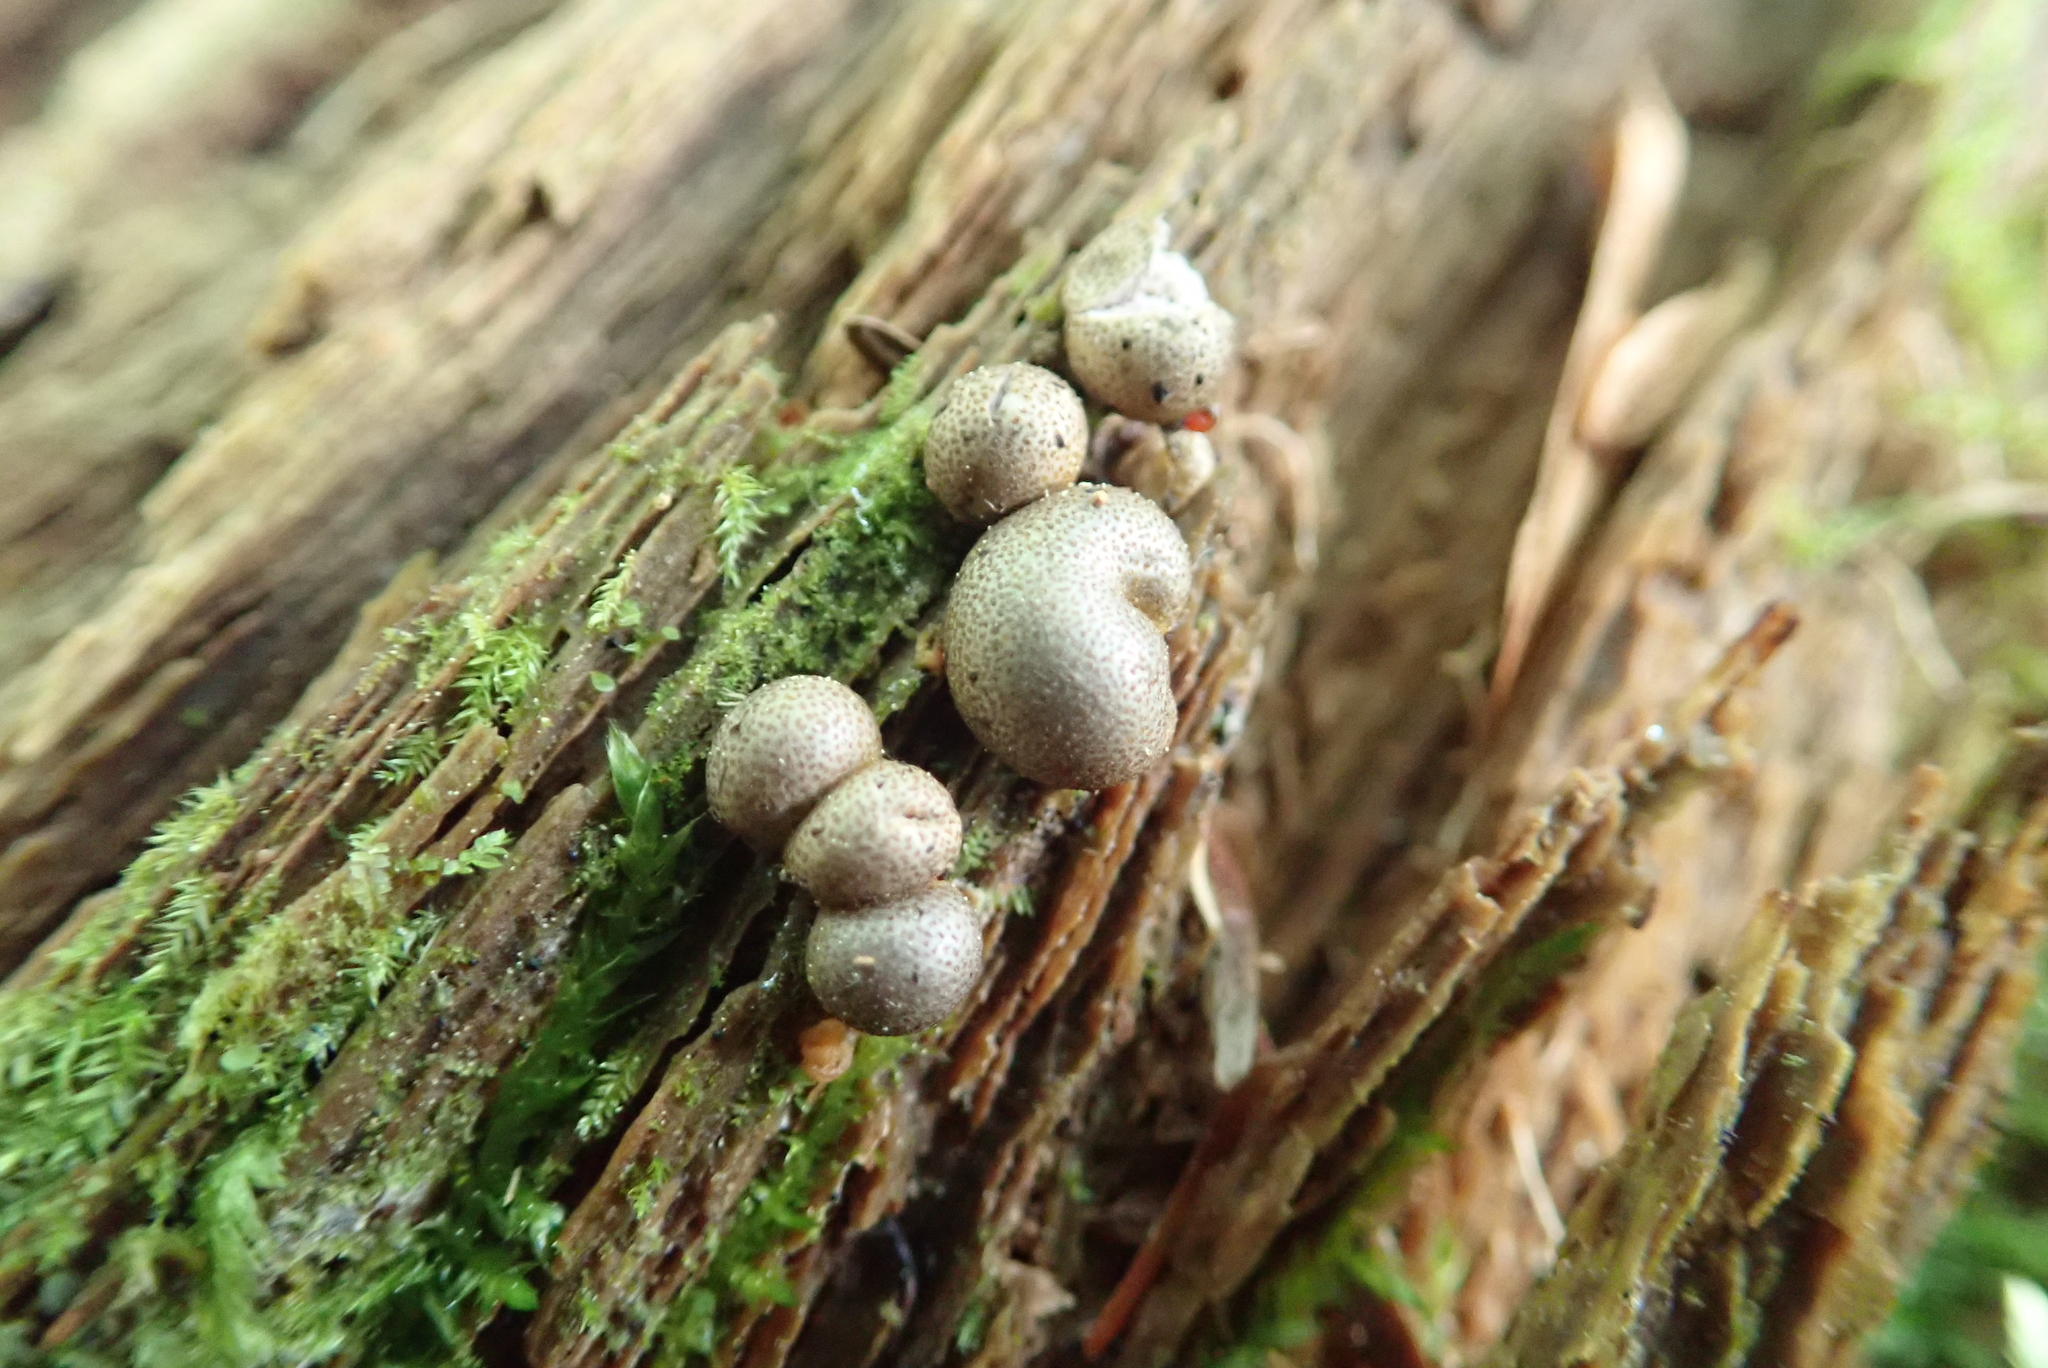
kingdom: Protozoa
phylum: Mycetozoa
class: Myxomycetes
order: Cribrariales
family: Tubiferaceae
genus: Lycogala
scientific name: Lycogala epidendrum
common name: Wolf's milk
